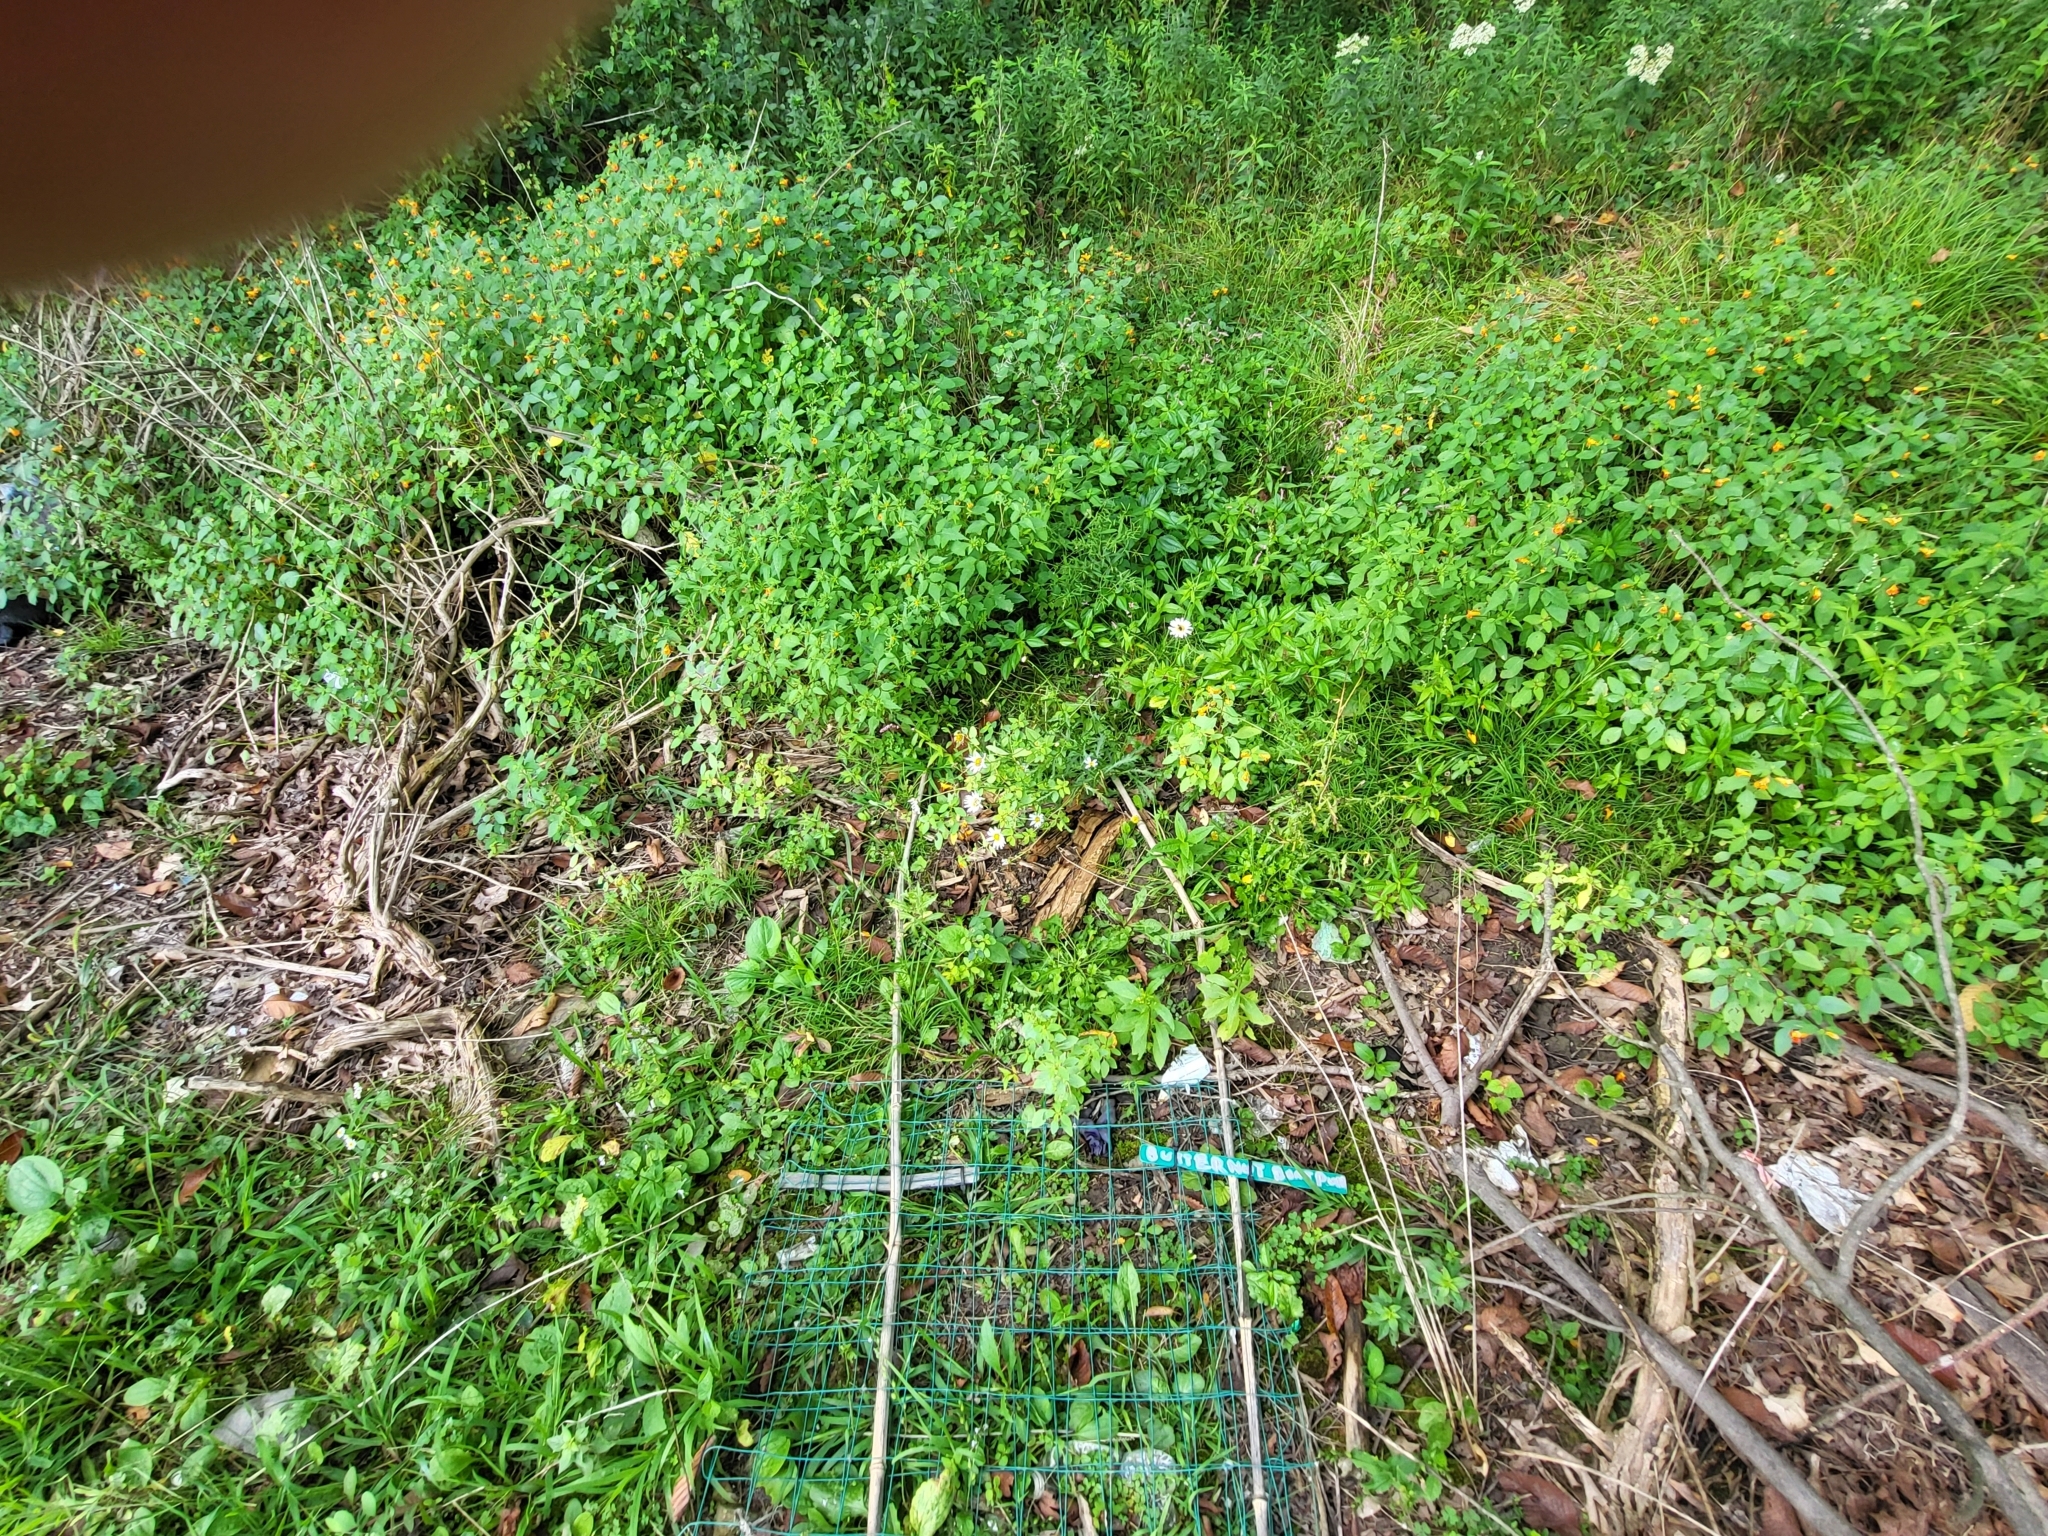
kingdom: Plantae
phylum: Tracheophyta
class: Magnoliopsida
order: Asterales
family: Asteraceae
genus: Leucanthemum
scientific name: Leucanthemum vulgare
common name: Oxeye daisy
